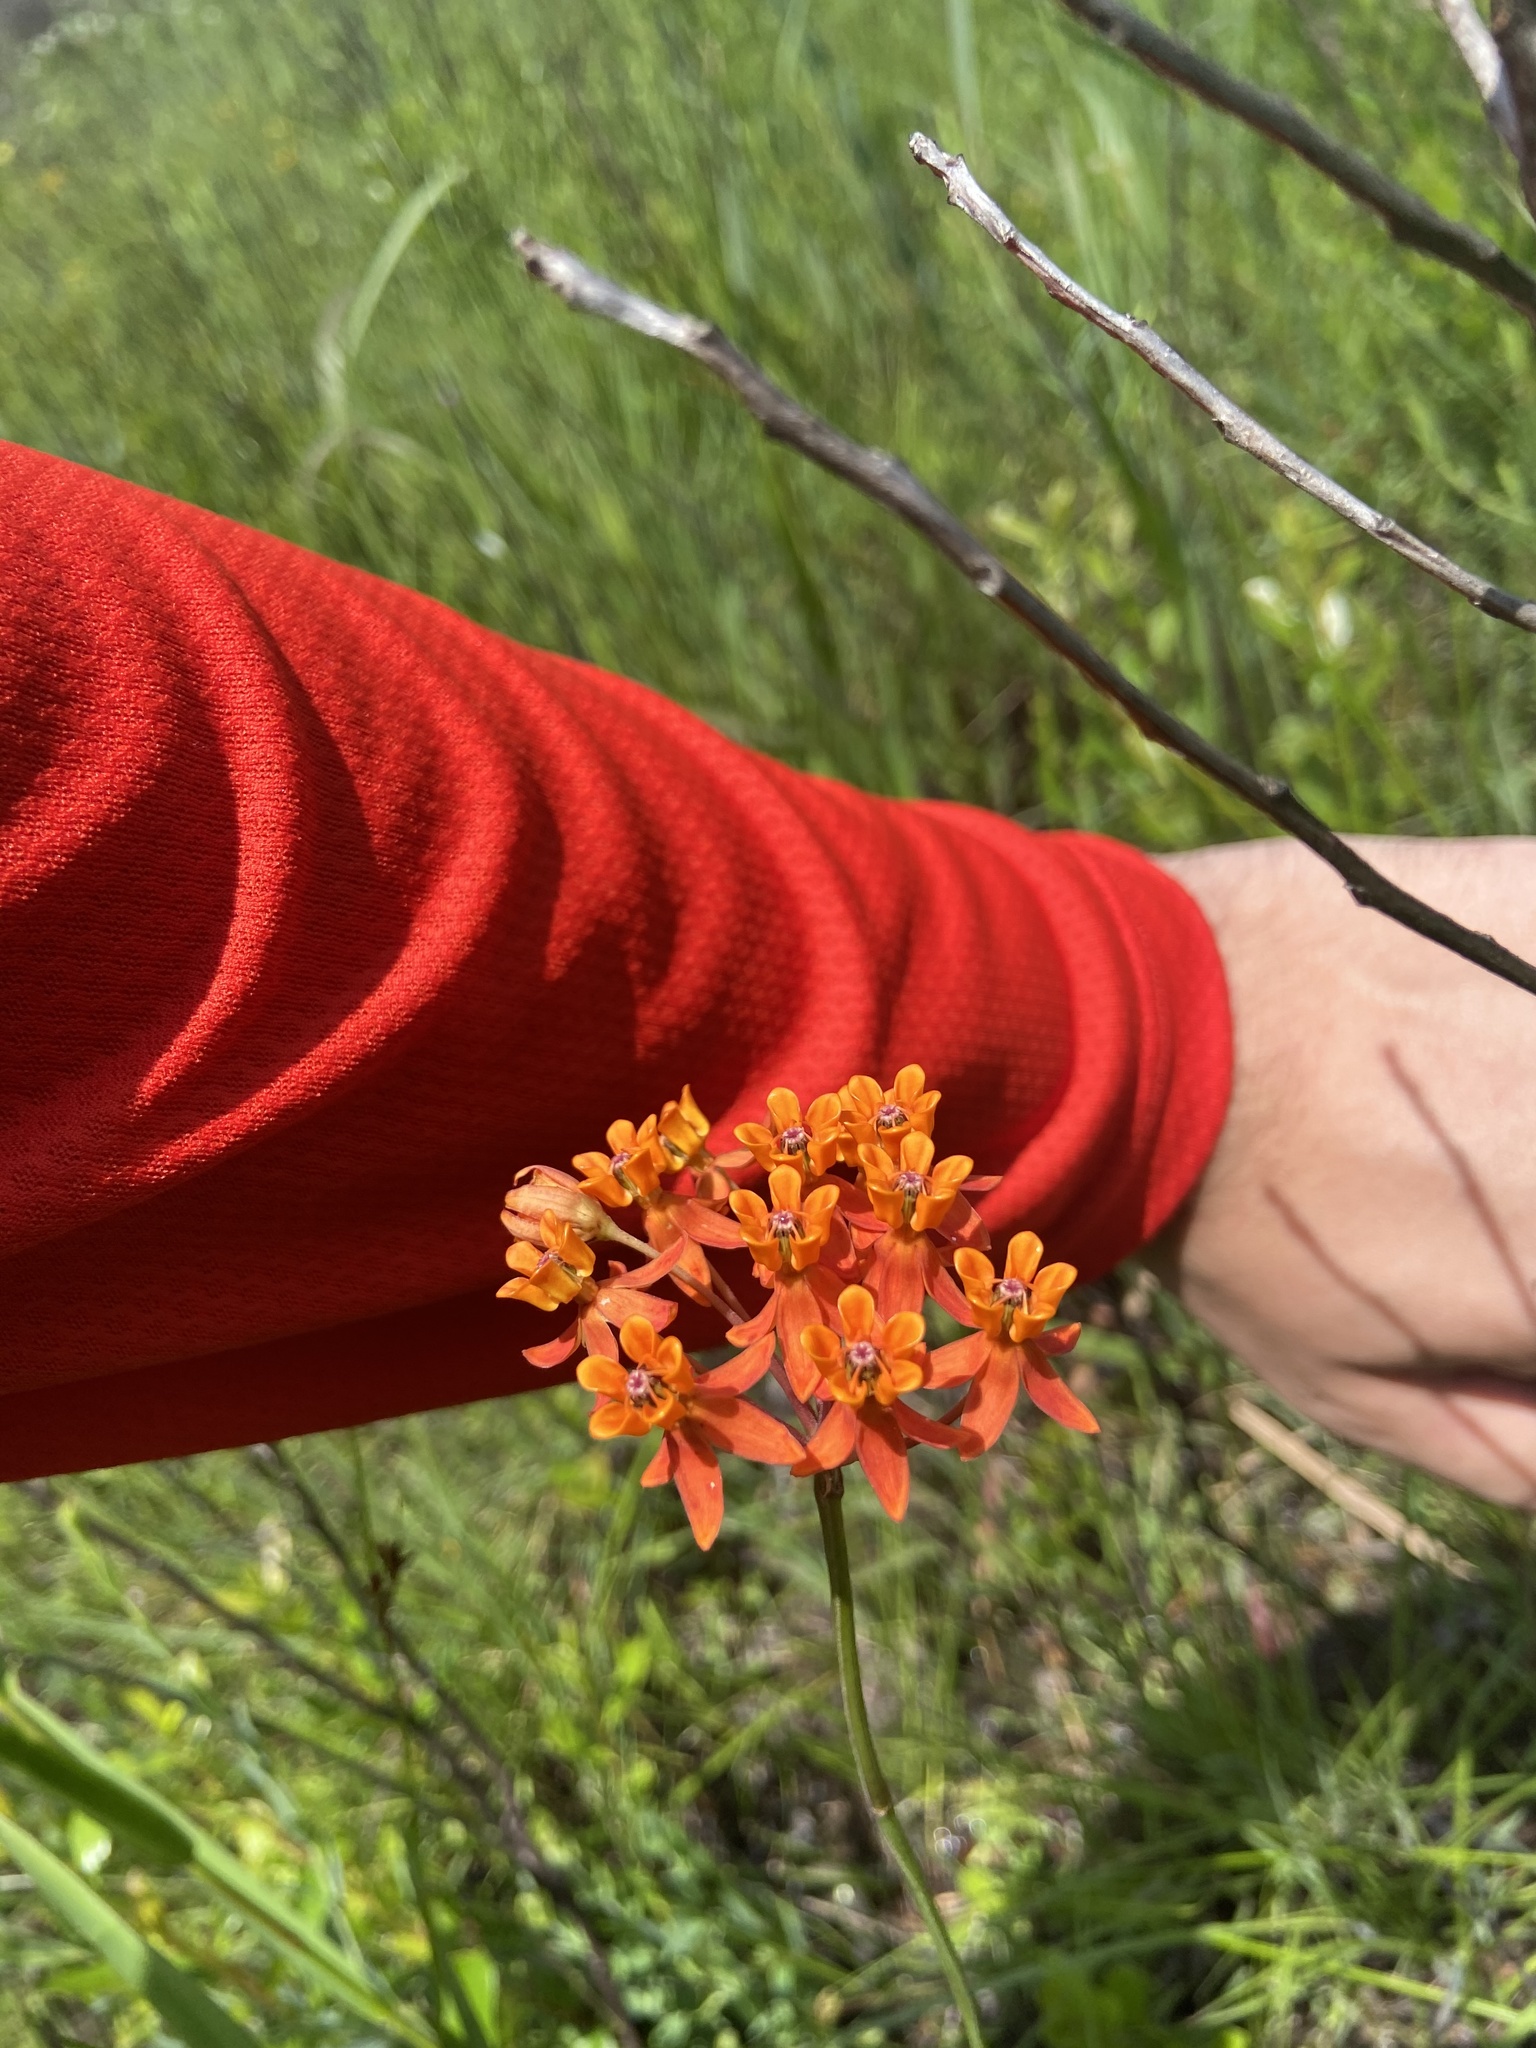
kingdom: Plantae
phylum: Tracheophyta
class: Magnoliopsida
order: Gentianales
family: Apocynaceae
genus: Asclepias
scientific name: Asclepias lanceolata
